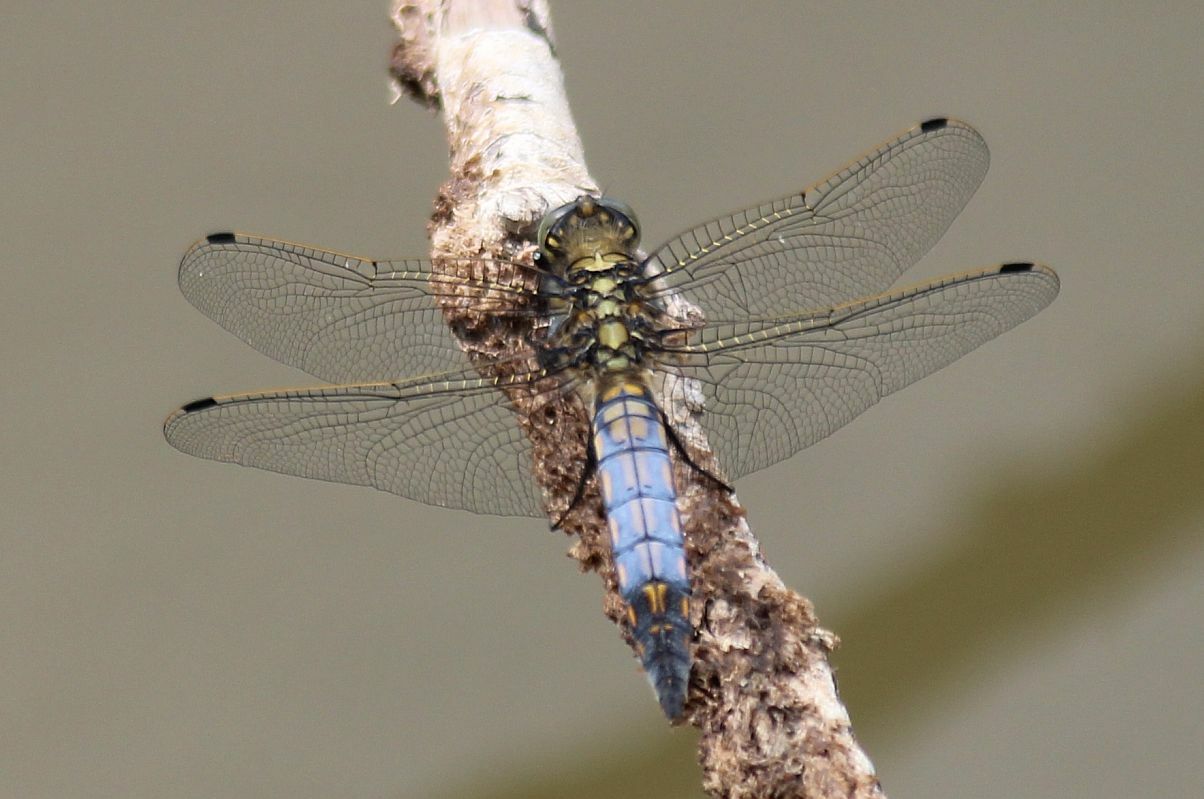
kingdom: Animalia
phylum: Arthropoda
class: Insecta
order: Odonata
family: Libellulidae
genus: Orthetrum
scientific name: Orthetrum cancellatum
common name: Black-tailed skimmer
